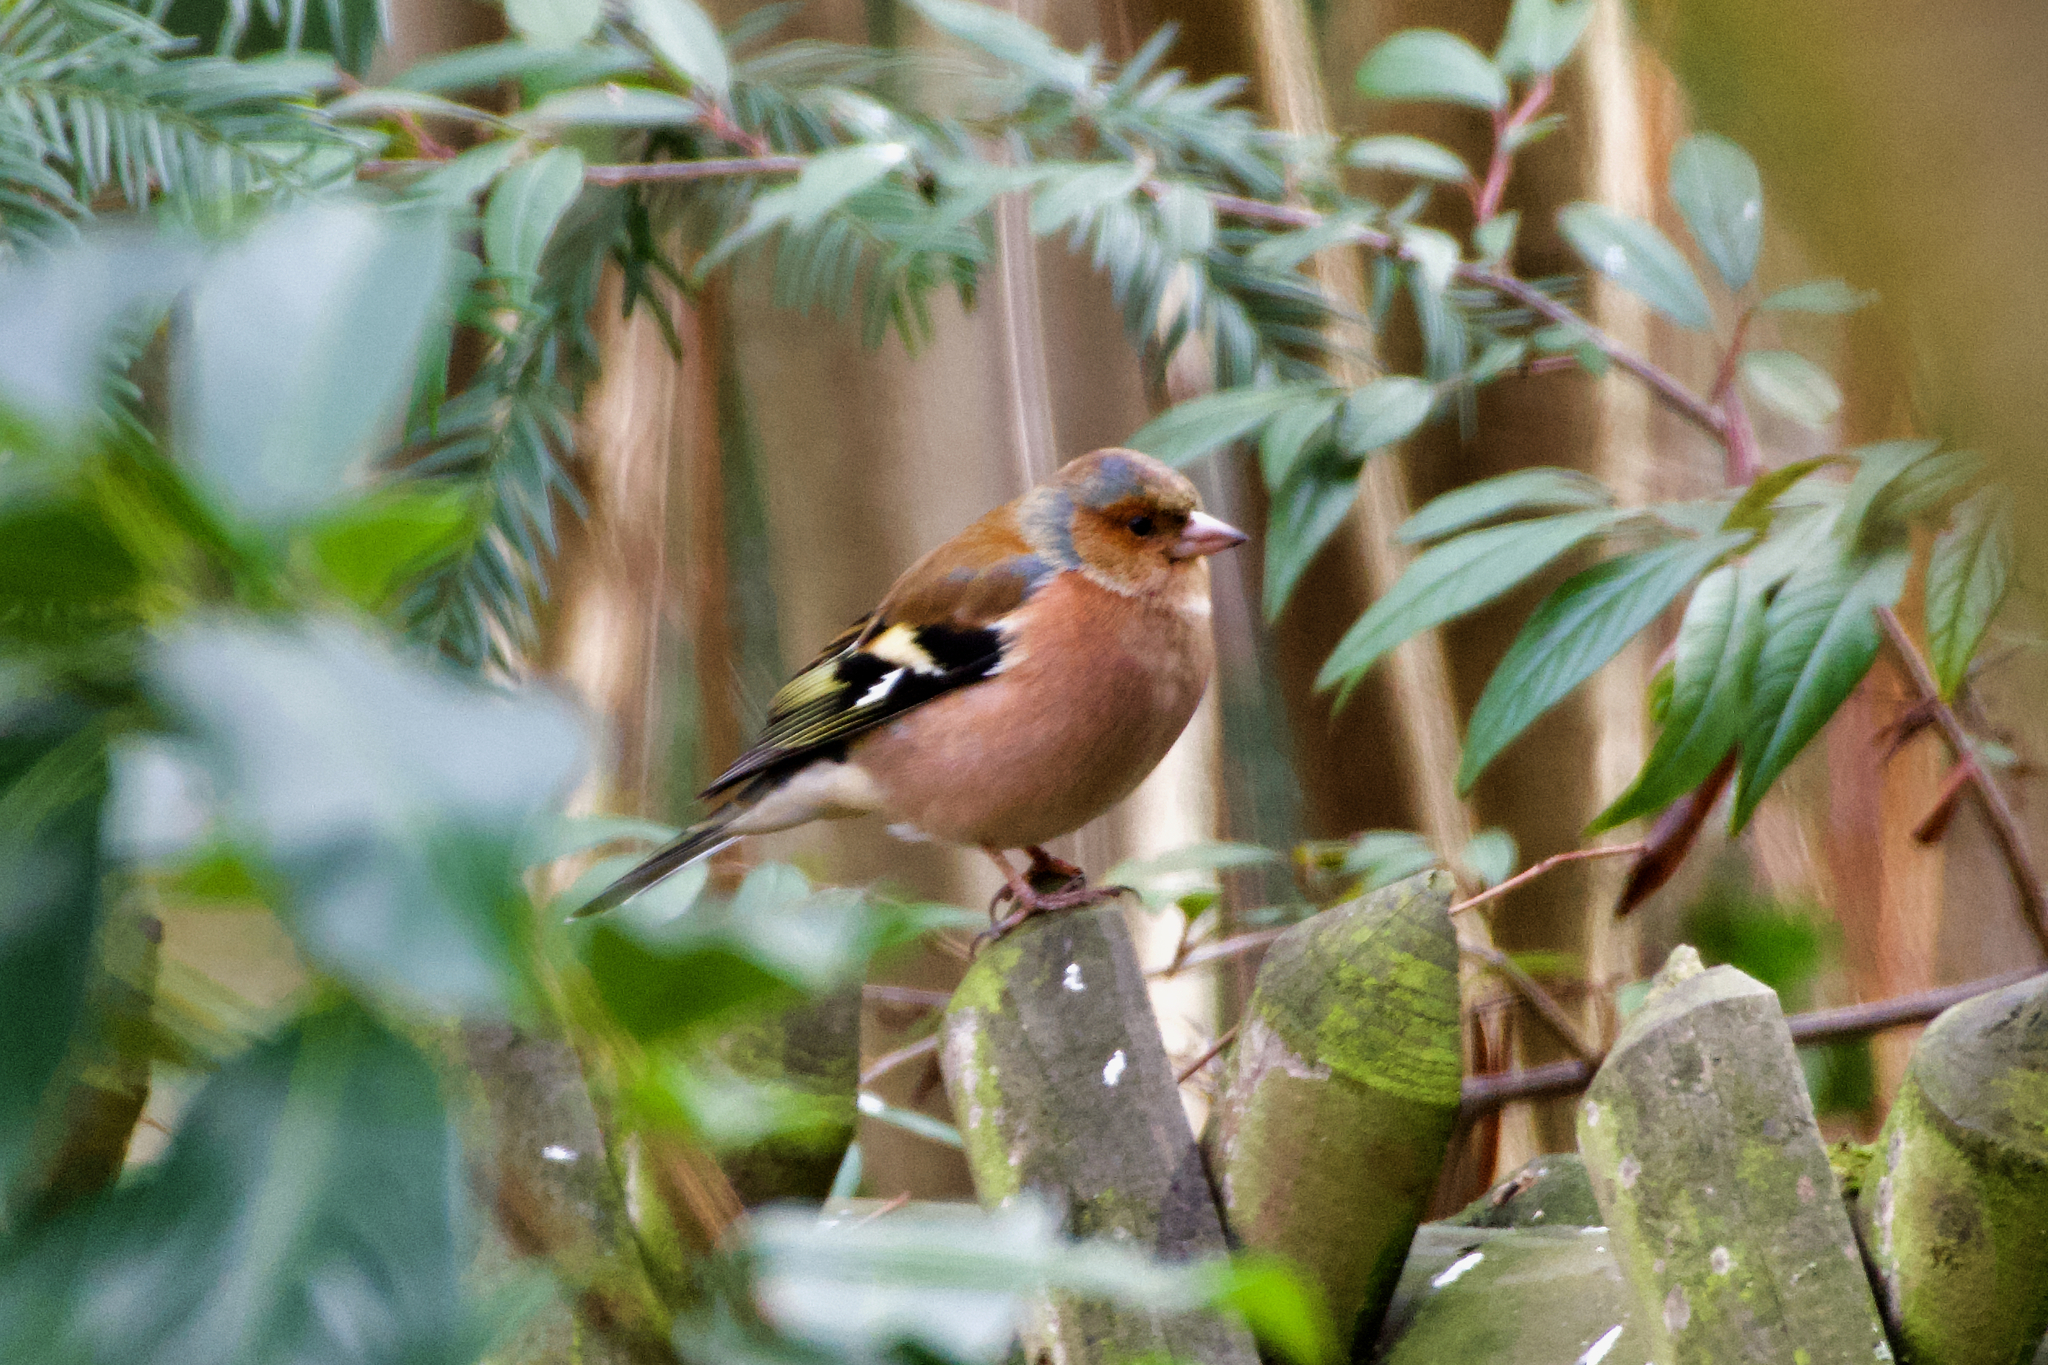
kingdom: Animalia
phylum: Chordata
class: Aves
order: Passeriformes
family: Fringillidae
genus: Fringilla
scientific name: Fringilla coelebs
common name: Common chaffinch
